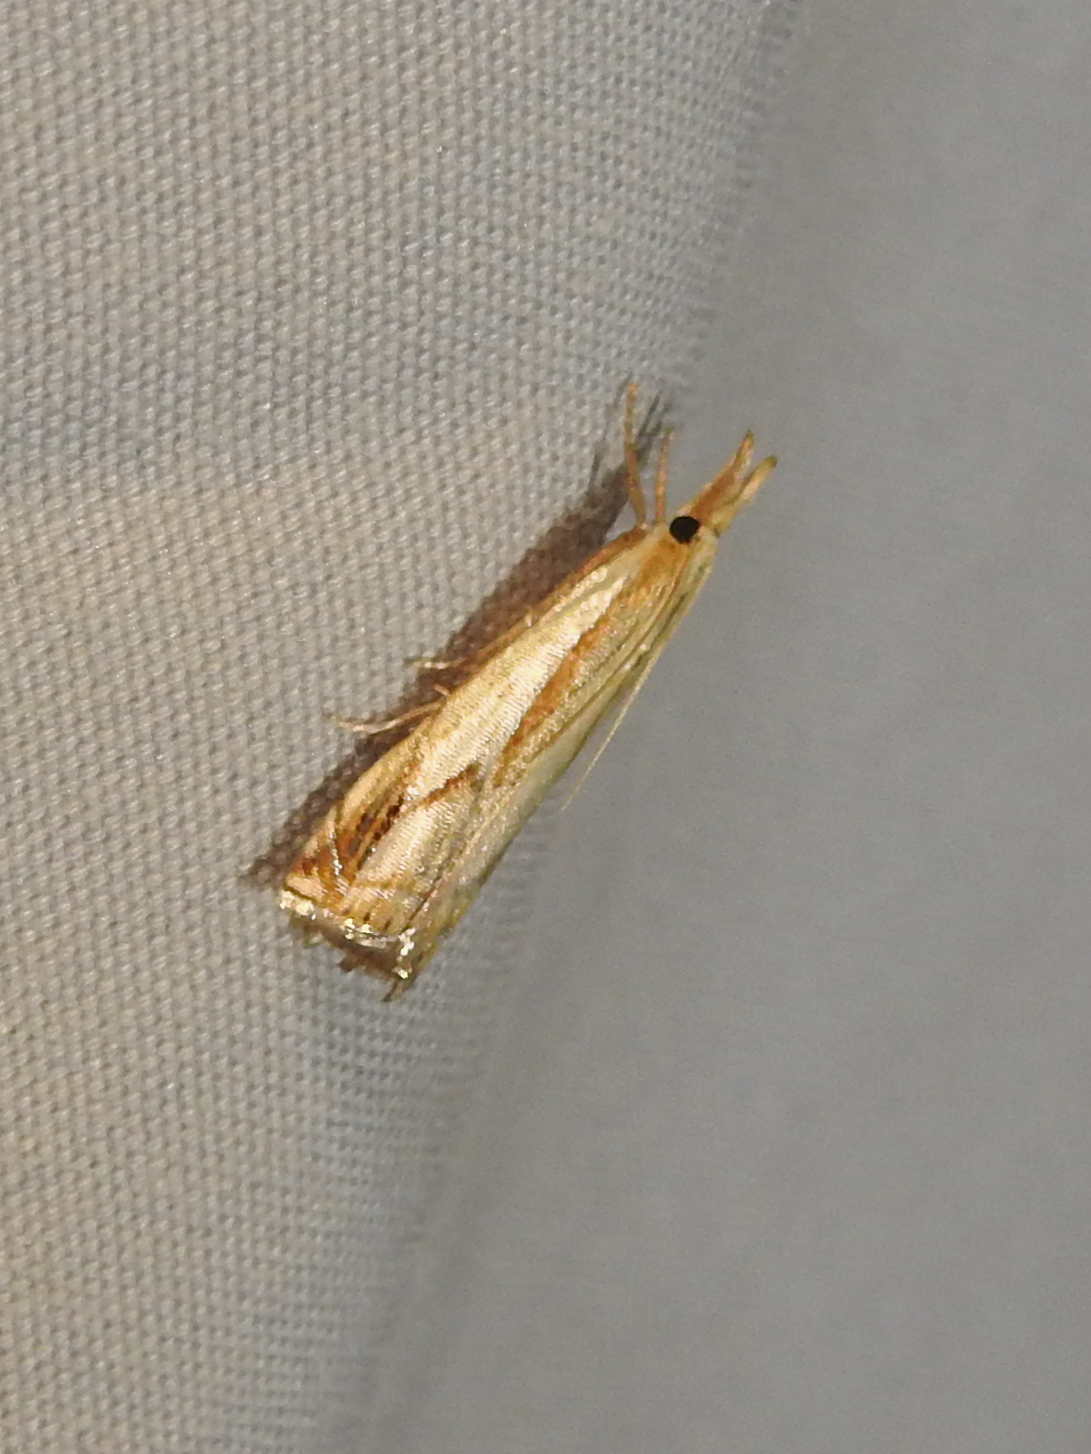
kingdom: Animalia
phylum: Arthropoda
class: Insecta
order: Lepidoptera
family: Crambidae
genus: Crambus
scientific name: Crambus agitatellus
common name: Double-banded grass-veneer
